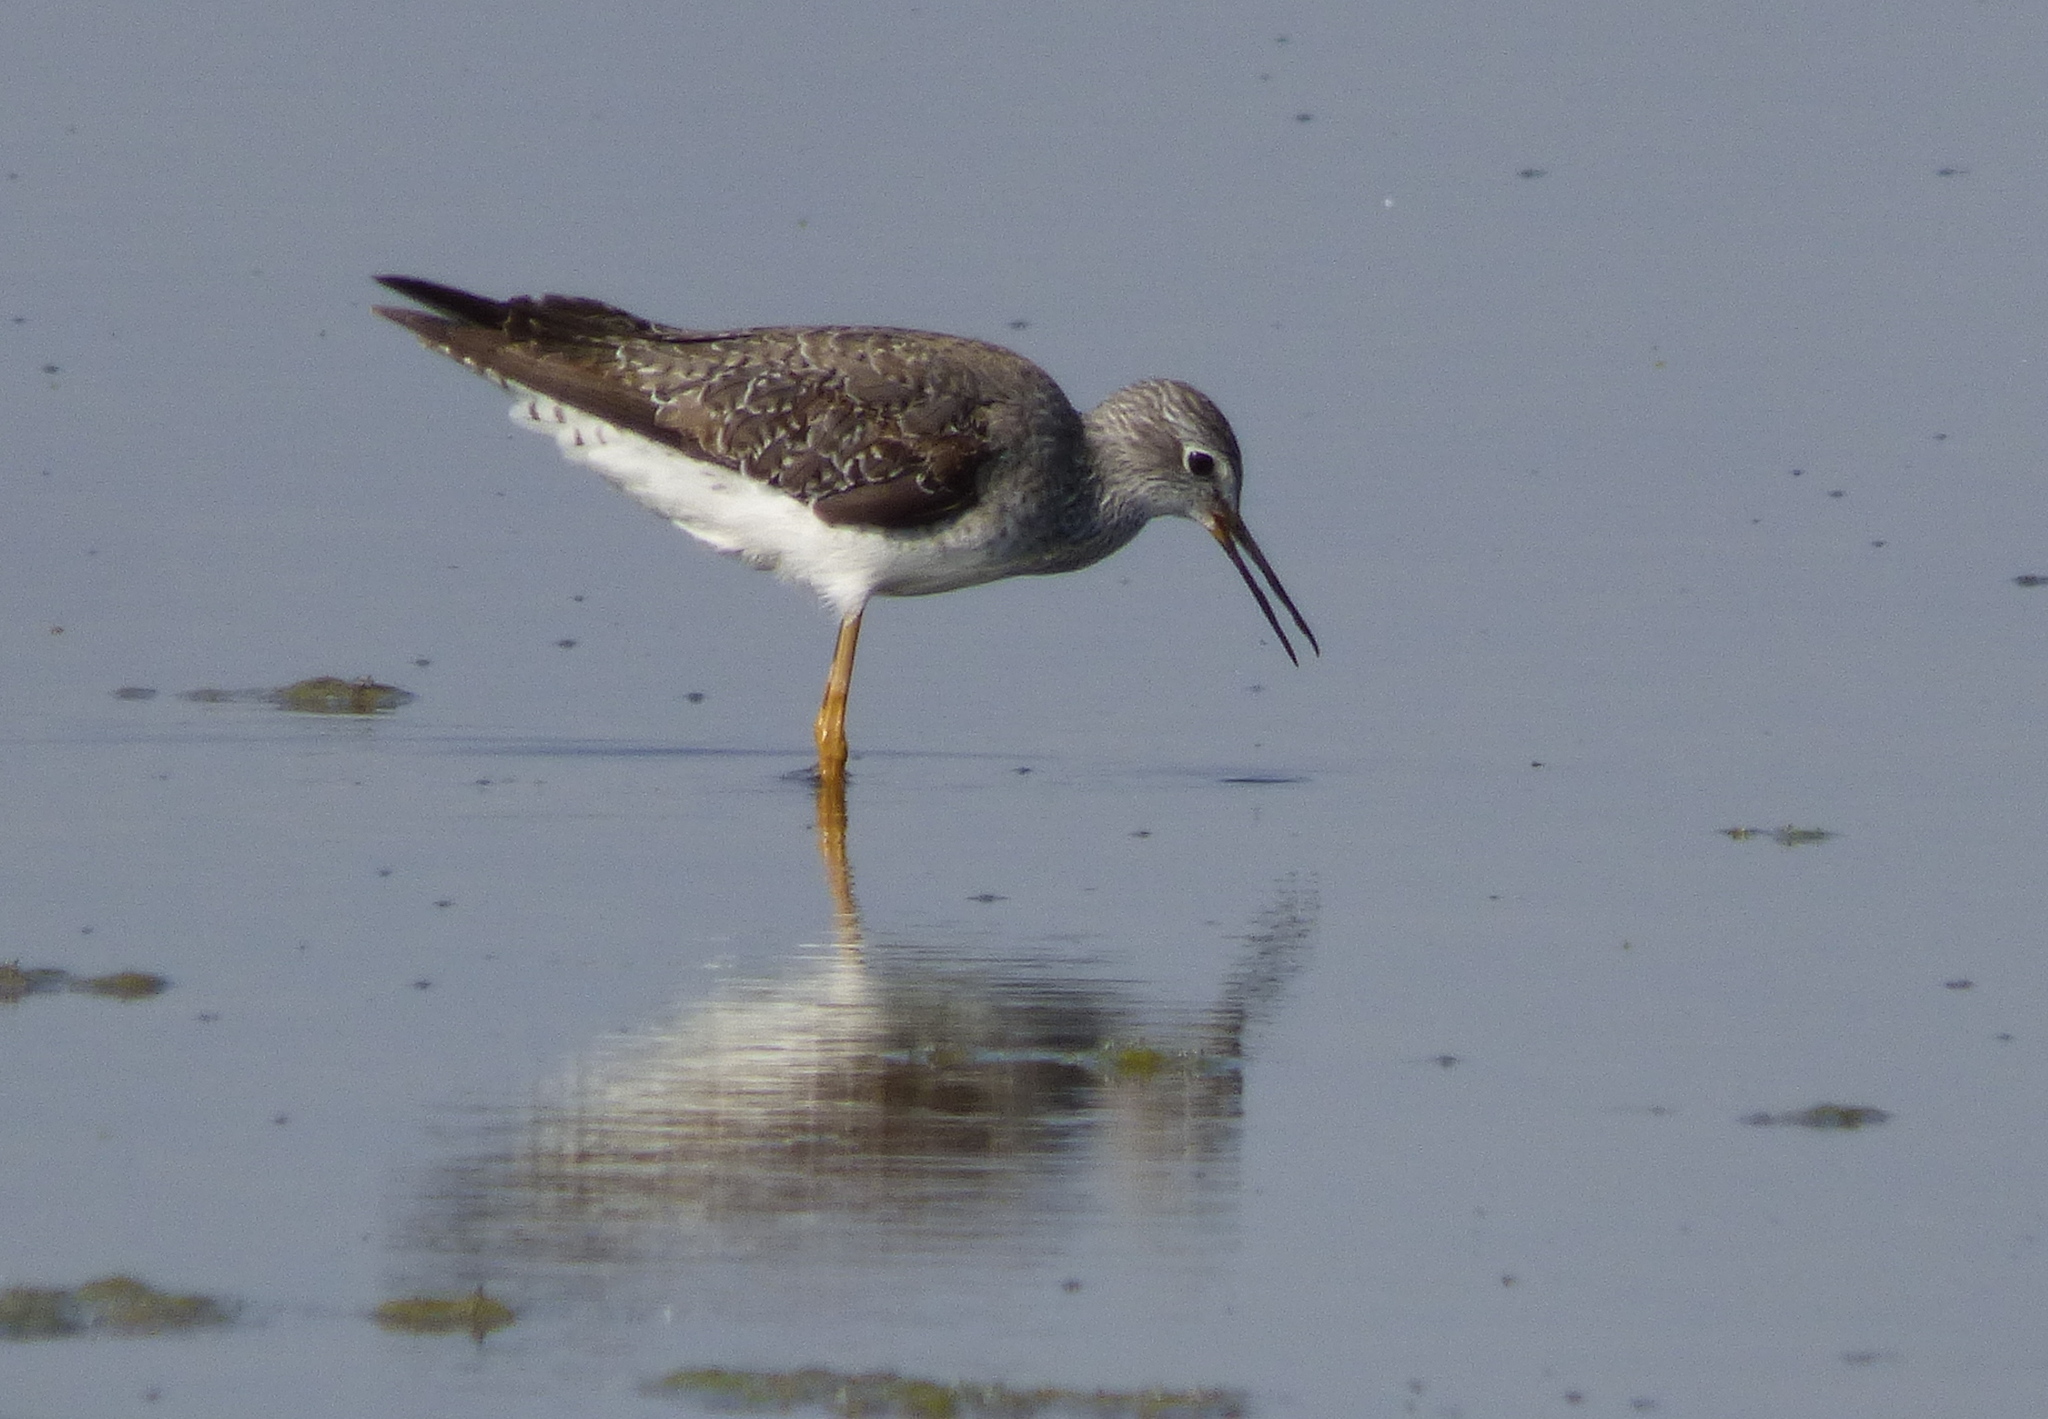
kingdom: Animalia
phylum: Chordata
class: Aves
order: Charadriiformes
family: Scolopacidae
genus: Tringa
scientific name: Tringa flavipes
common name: Lesser yellowlegs
